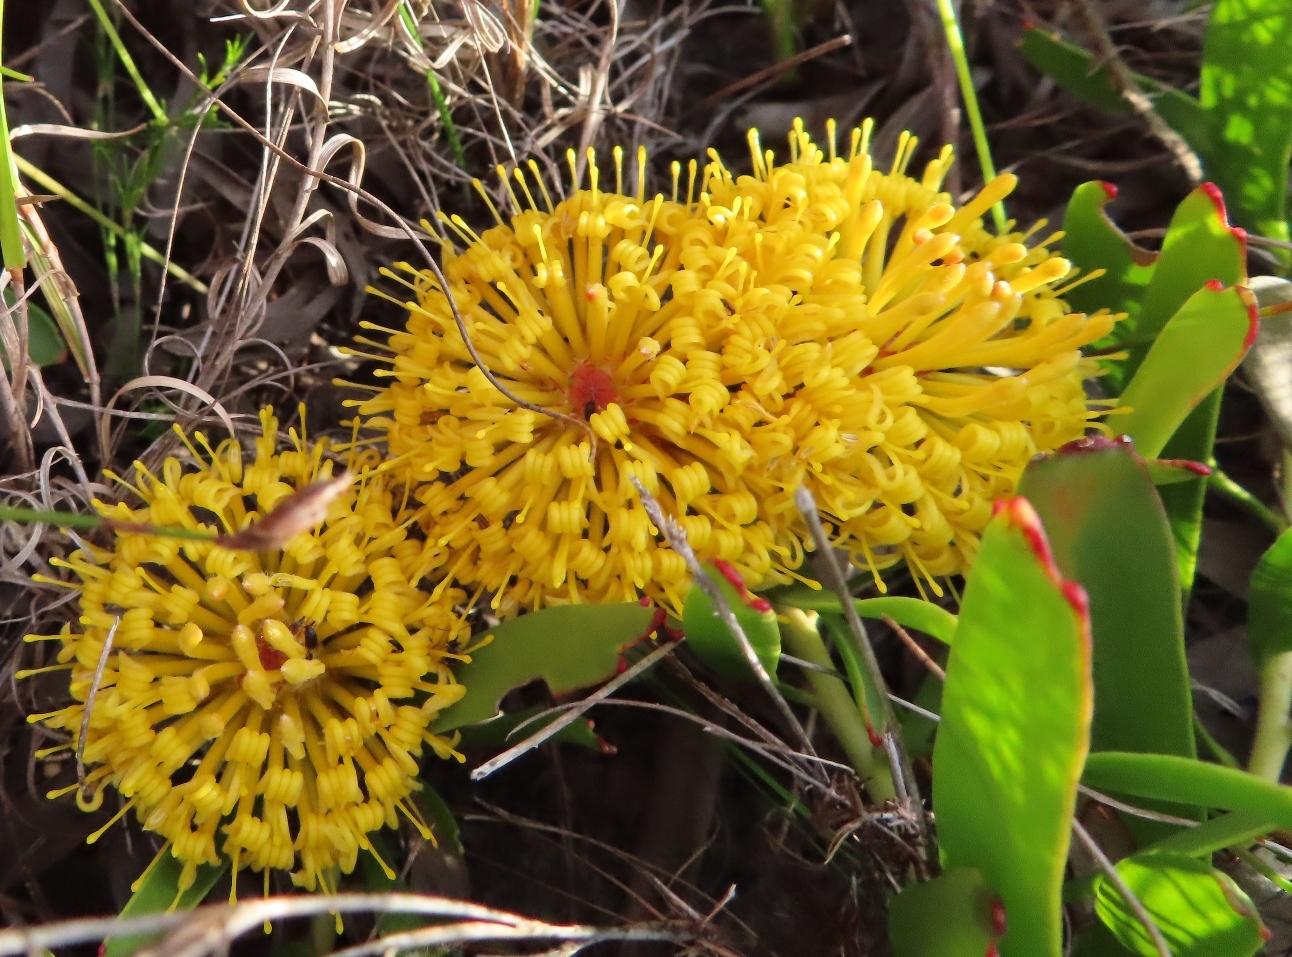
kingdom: Plantae
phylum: Tracheophyta
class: Magnoliopsida
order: Proteales
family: Proteaceae
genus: Leucospermum
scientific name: Leucospermum hypophyllocarpodendron
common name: Snakestem pincushion
